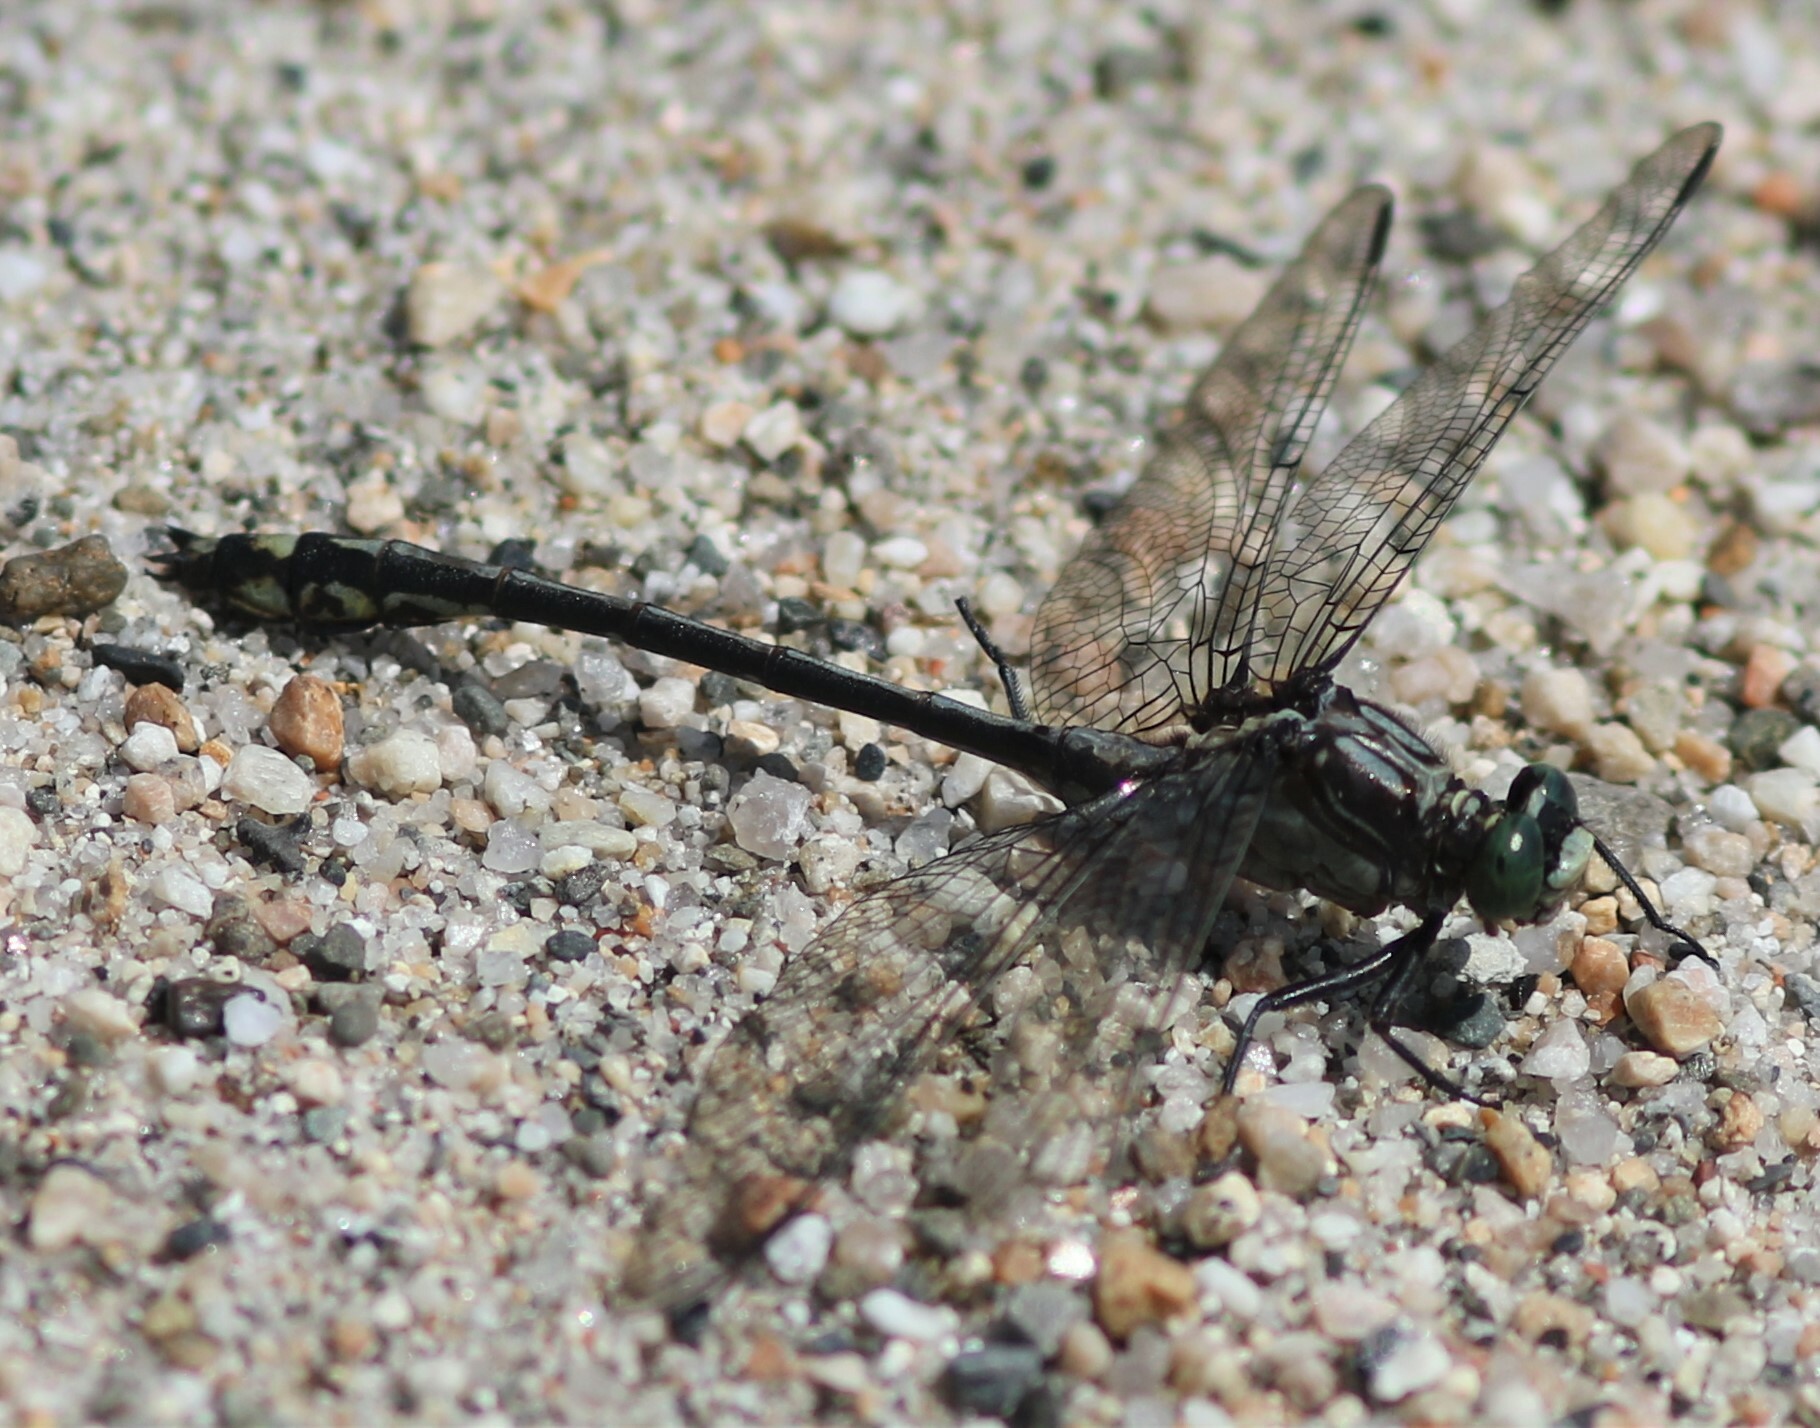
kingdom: Animalia
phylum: Arthropoda
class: Insecta
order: Odonata
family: Gomphidae
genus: Dromogomphus
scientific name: Dromogomphus spinosus
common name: Black-shouldered spinyleg
